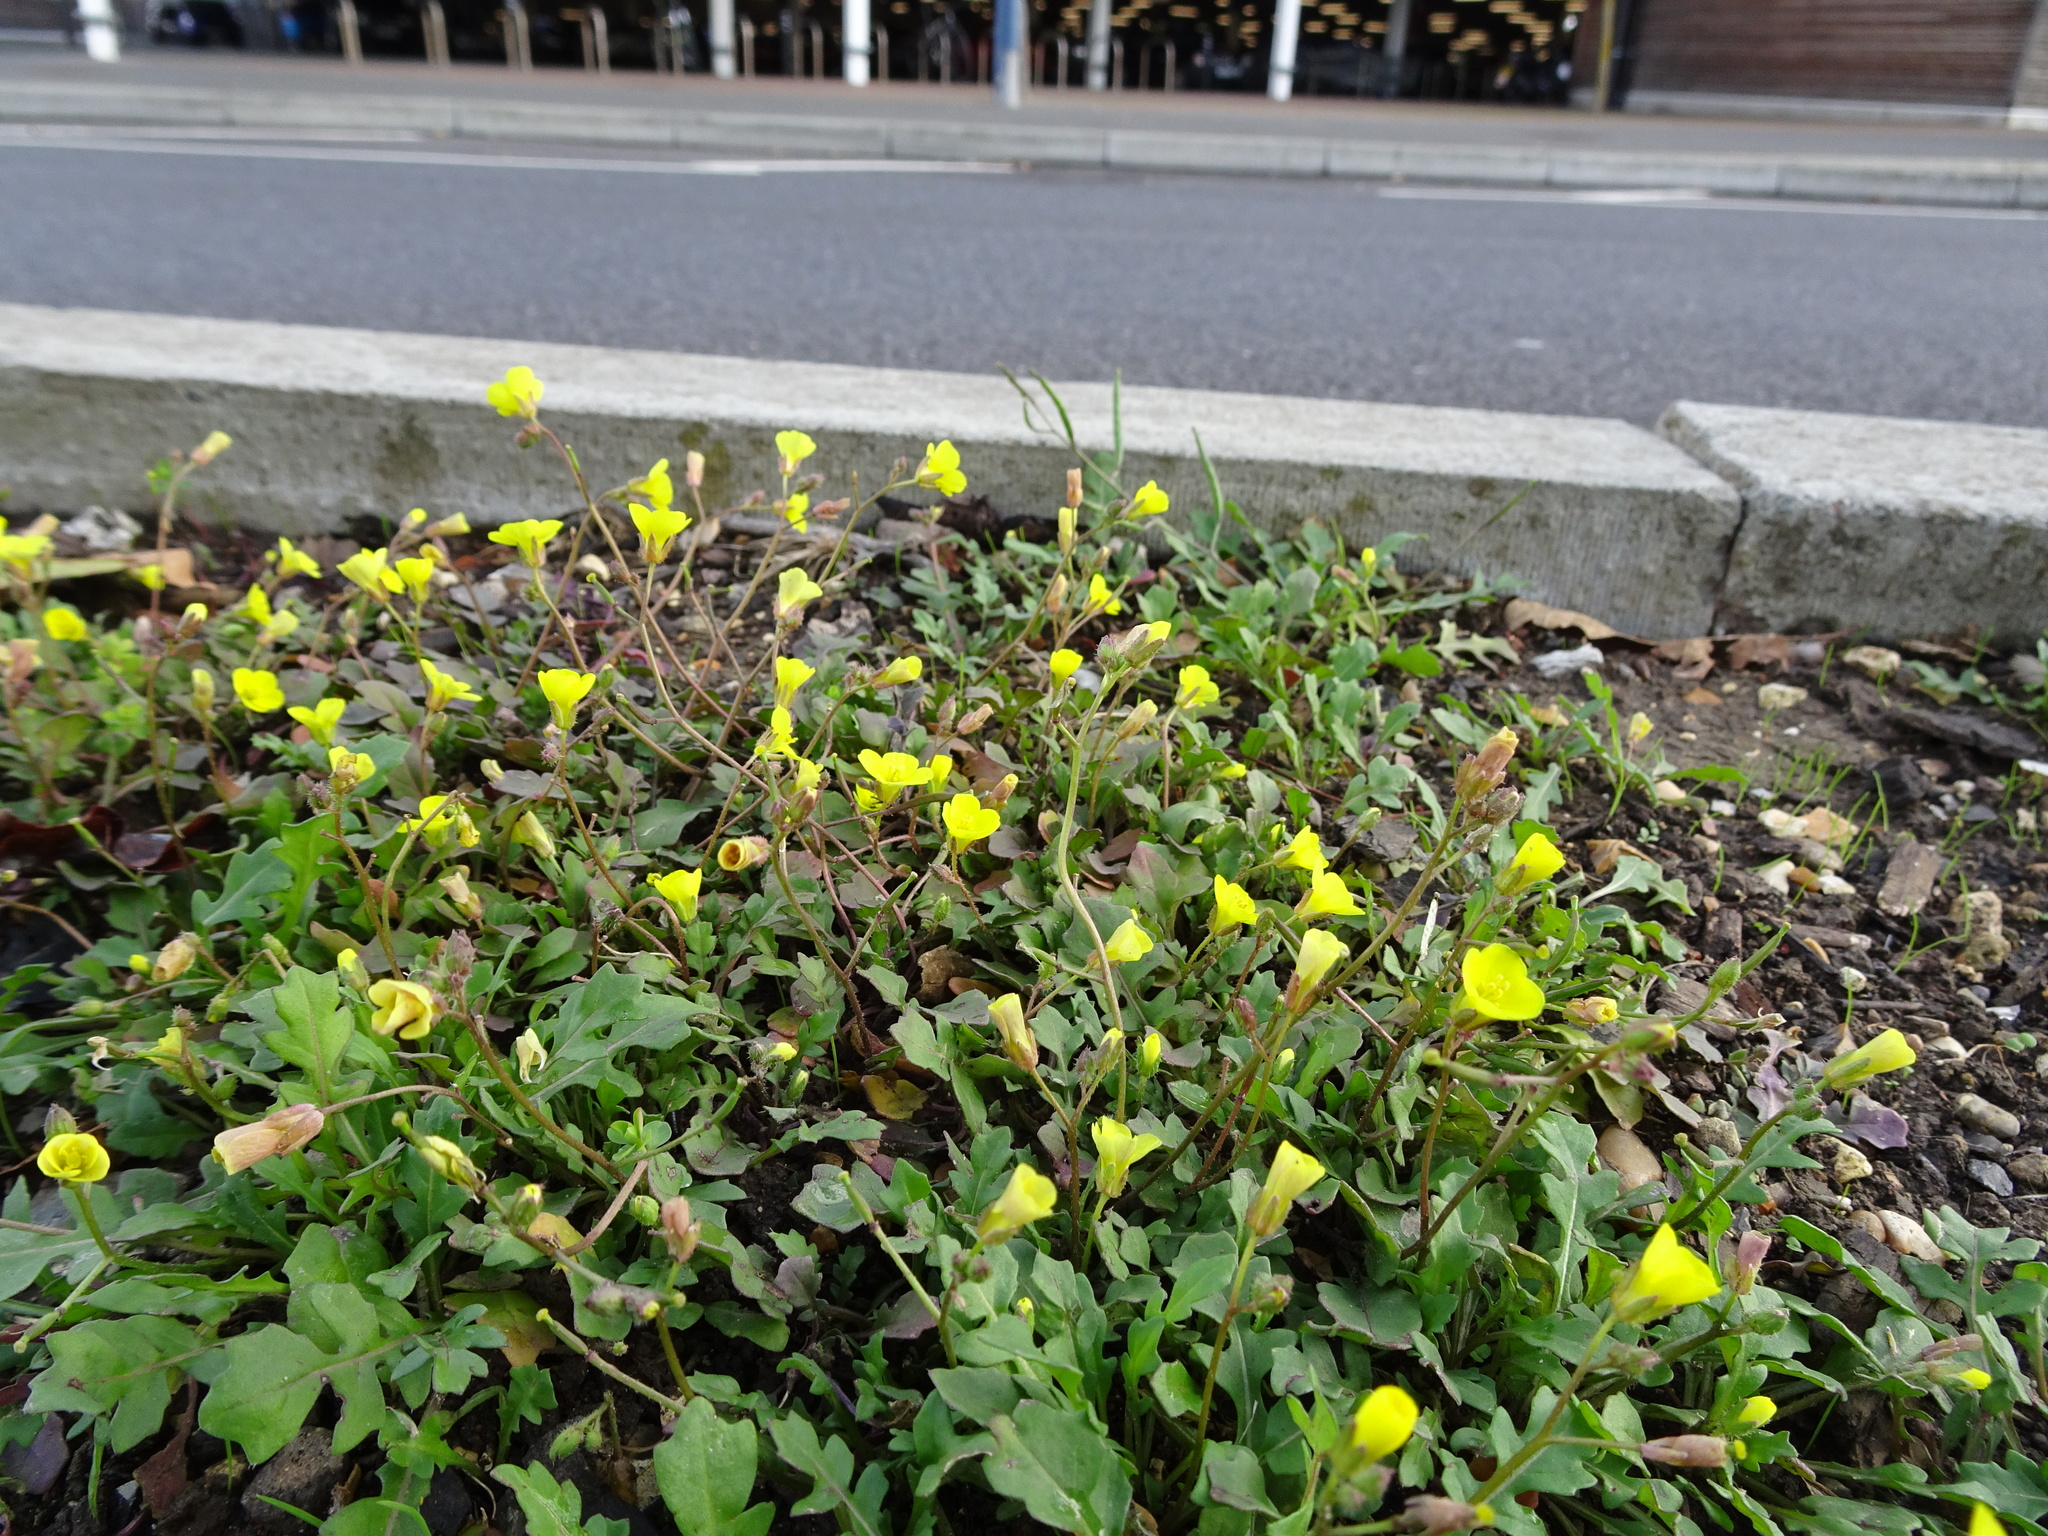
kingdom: Plantae
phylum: Tracheophyta
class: Magnoliopsida
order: Brassicales
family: Brassicaceae
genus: Diplotaxis
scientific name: Diplotaxis muralis
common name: Annual wall-rocket
